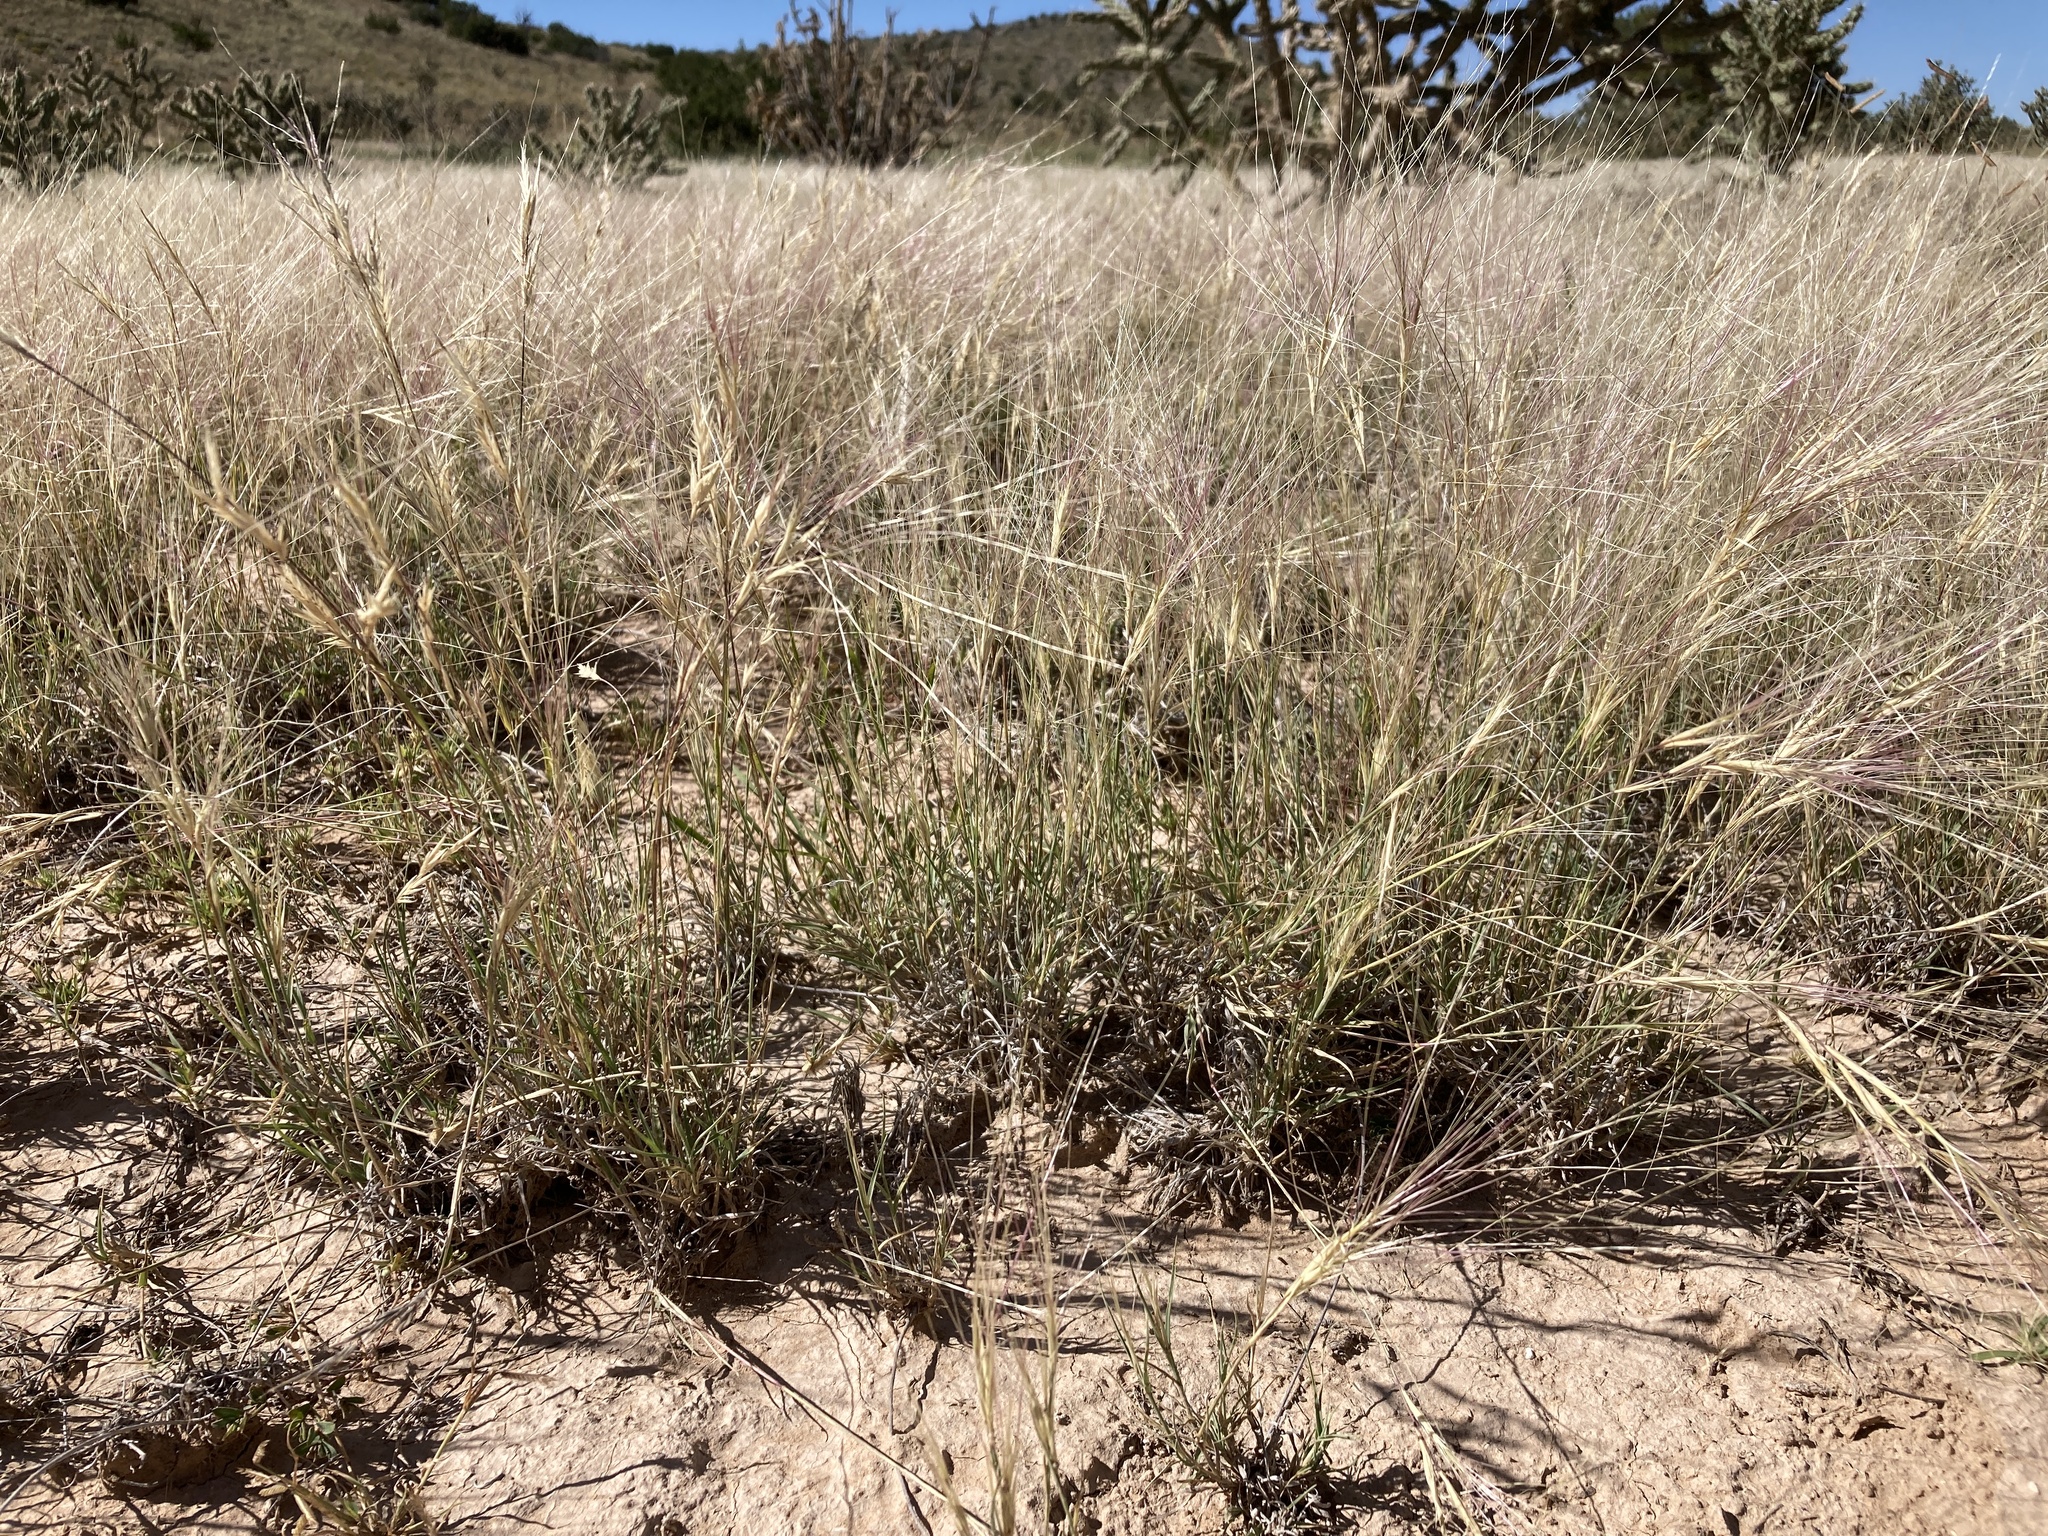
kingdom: Plantae
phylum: Tracheophyta
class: Liliopsida
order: Poales
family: Poaceae
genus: Scleropogon
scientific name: Scleropogon brevifolius
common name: Burro grass
